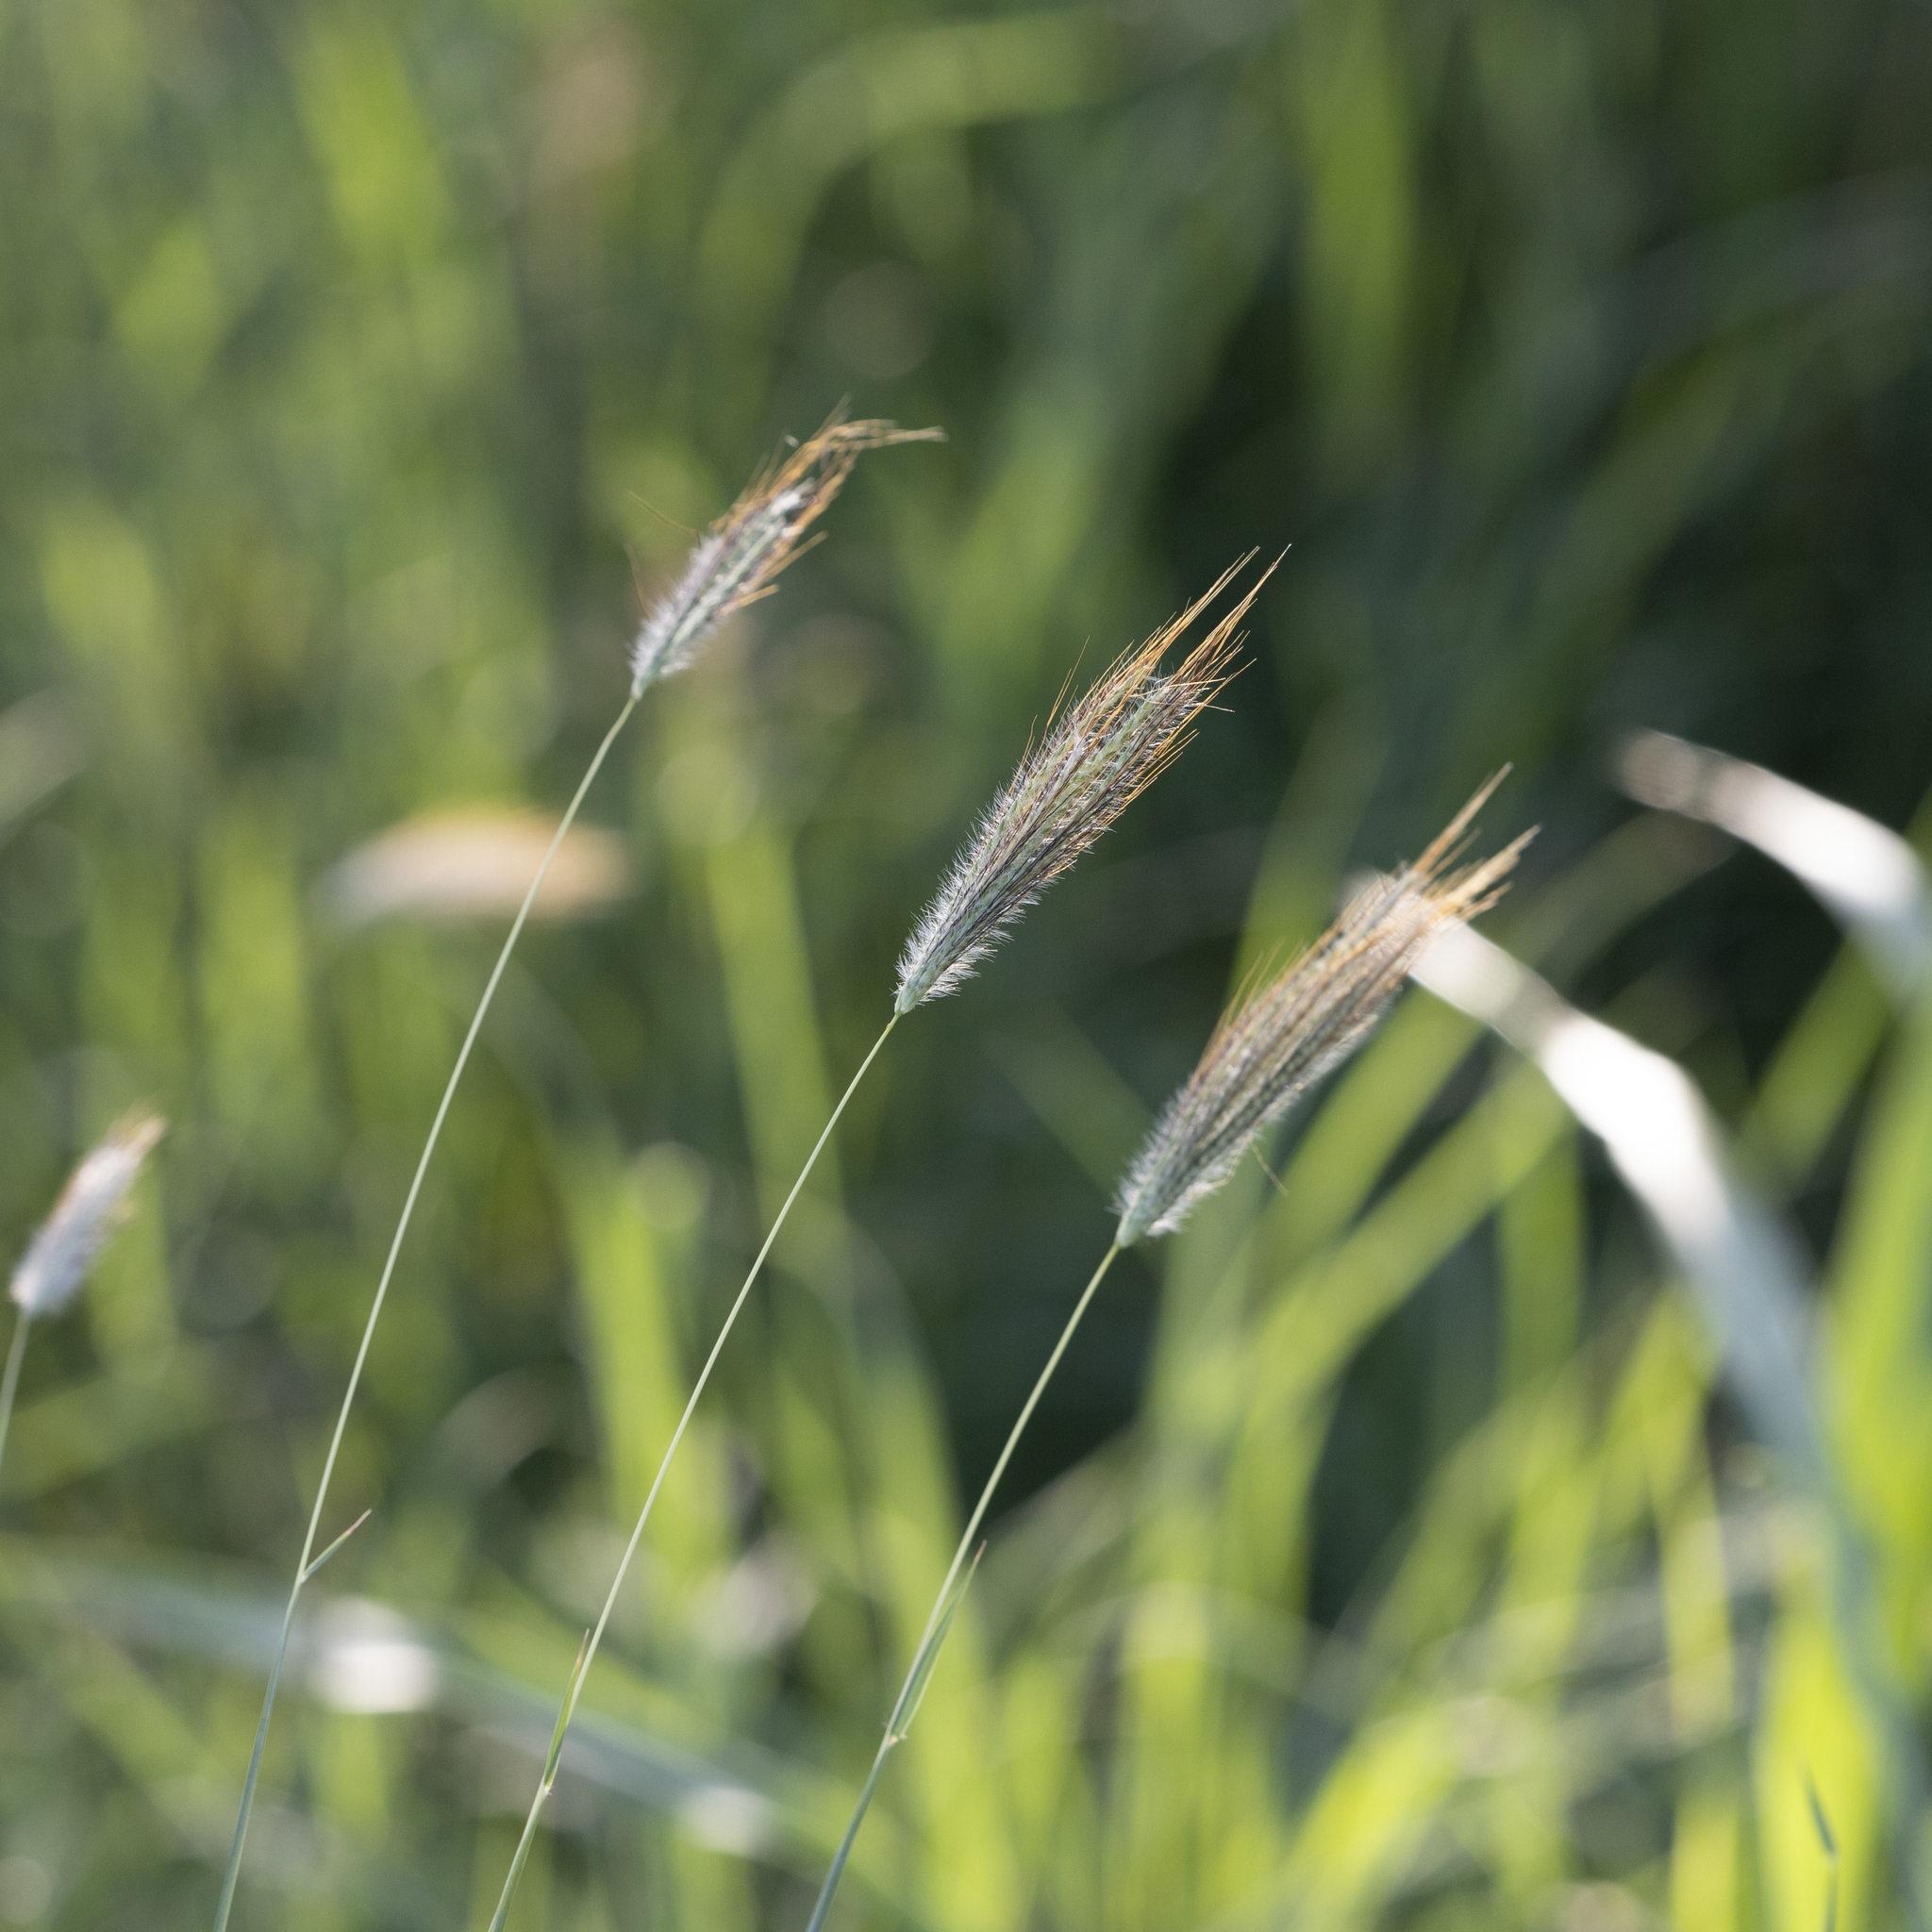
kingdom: Plantae
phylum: Tracheophyta
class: Liliopsida
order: Poales
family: Poaceae
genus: Dichanthium
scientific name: Dichanthium sericeum
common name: Silky bluestem
